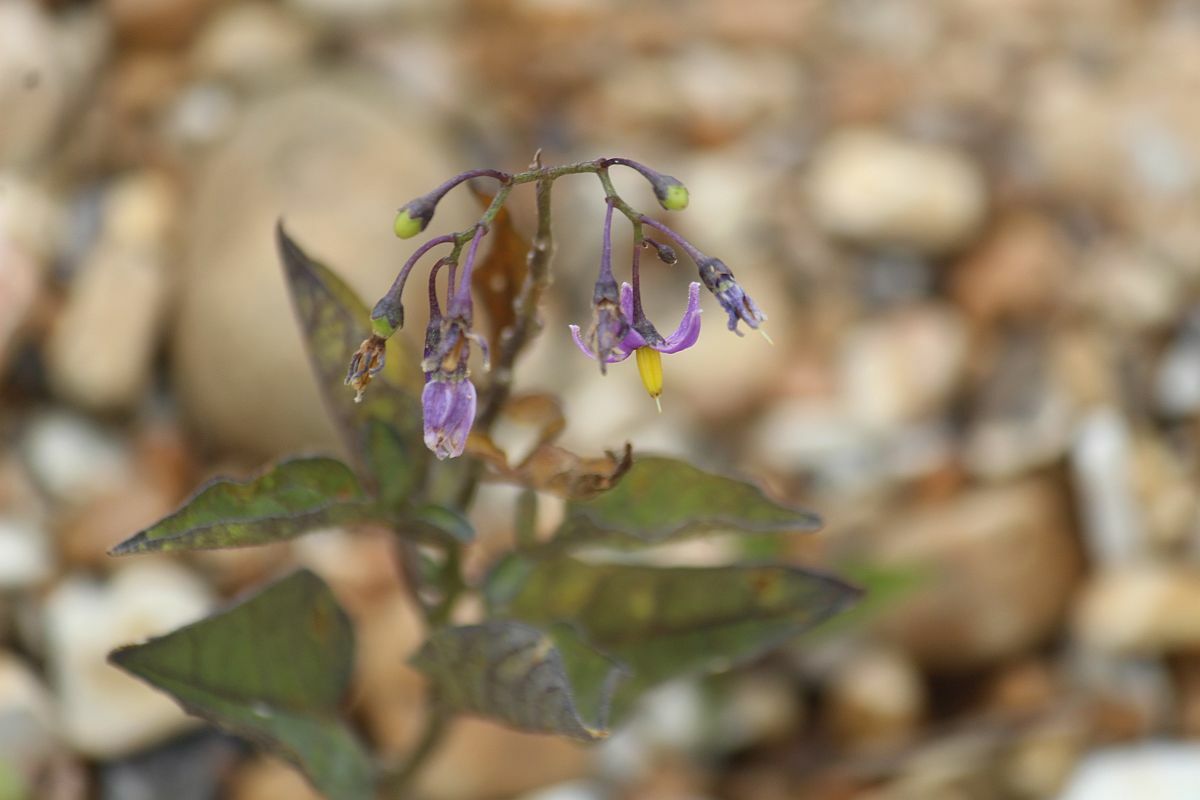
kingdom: Plantae
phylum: Tracheophyta
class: Magnoliopsida
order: Solanales
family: Solanaceae
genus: Solanum
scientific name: Solanum dulcamara
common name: Climbing nightshade
